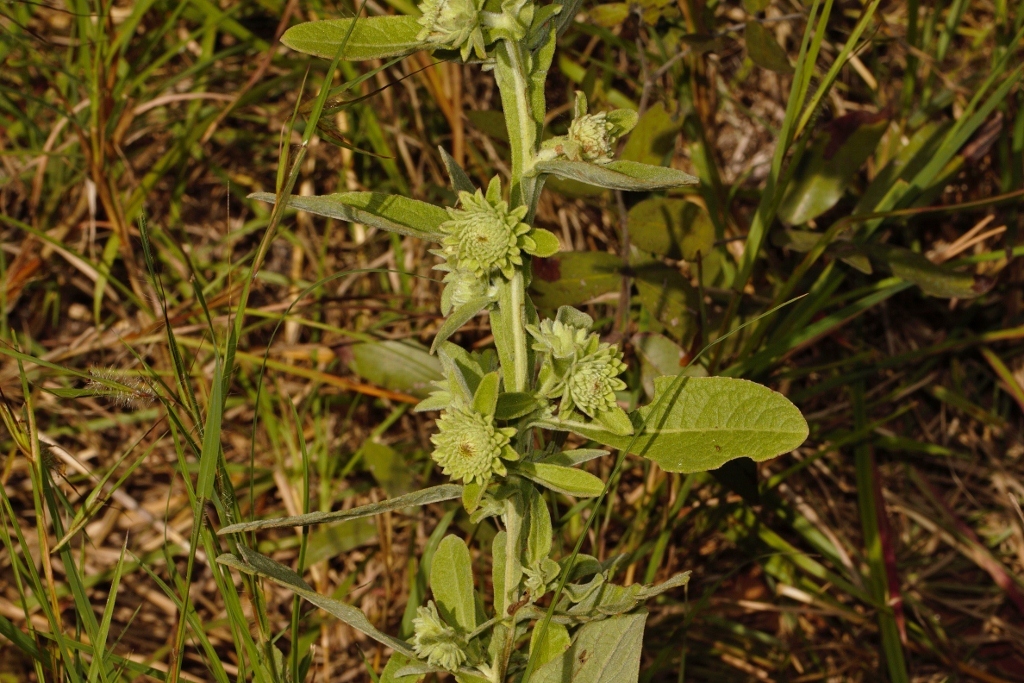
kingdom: Plantae
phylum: Tracheophyta
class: Magnoliopsida
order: Asterales
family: Asteraceae
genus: Laggera
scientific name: Laggera crispata
